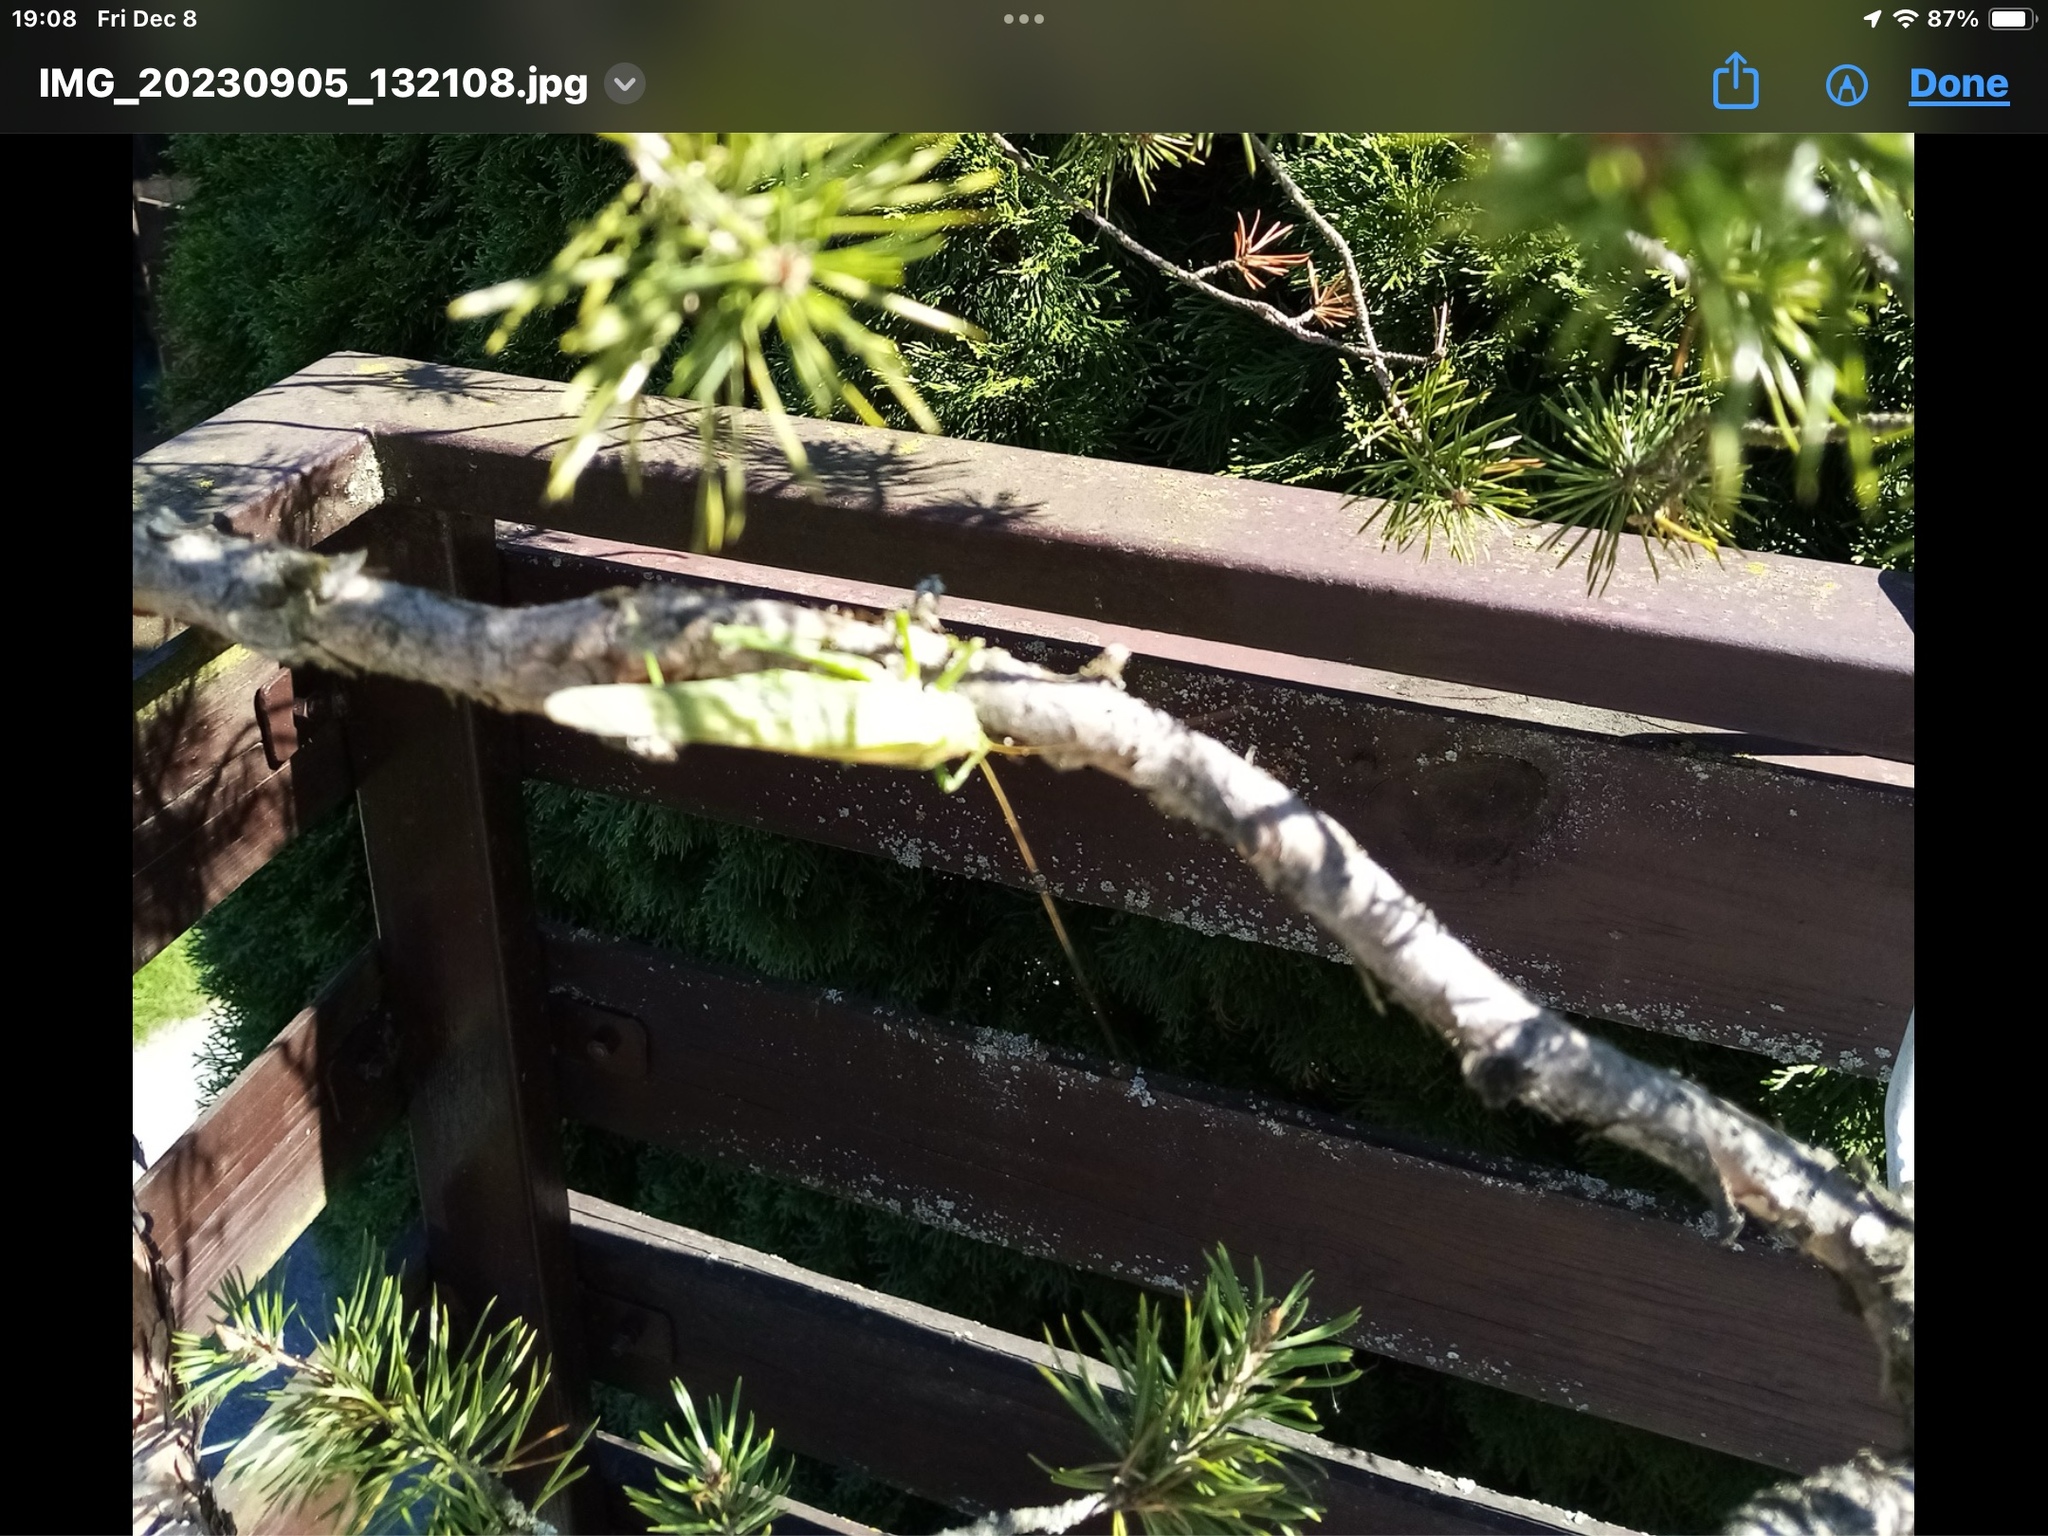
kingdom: Animalia
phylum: Arthropoda
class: Insecta
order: Orthoptera
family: Tettigoniidae
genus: Tettigonia
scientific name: Tettigonia viridissima
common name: Great green bush-cricket
